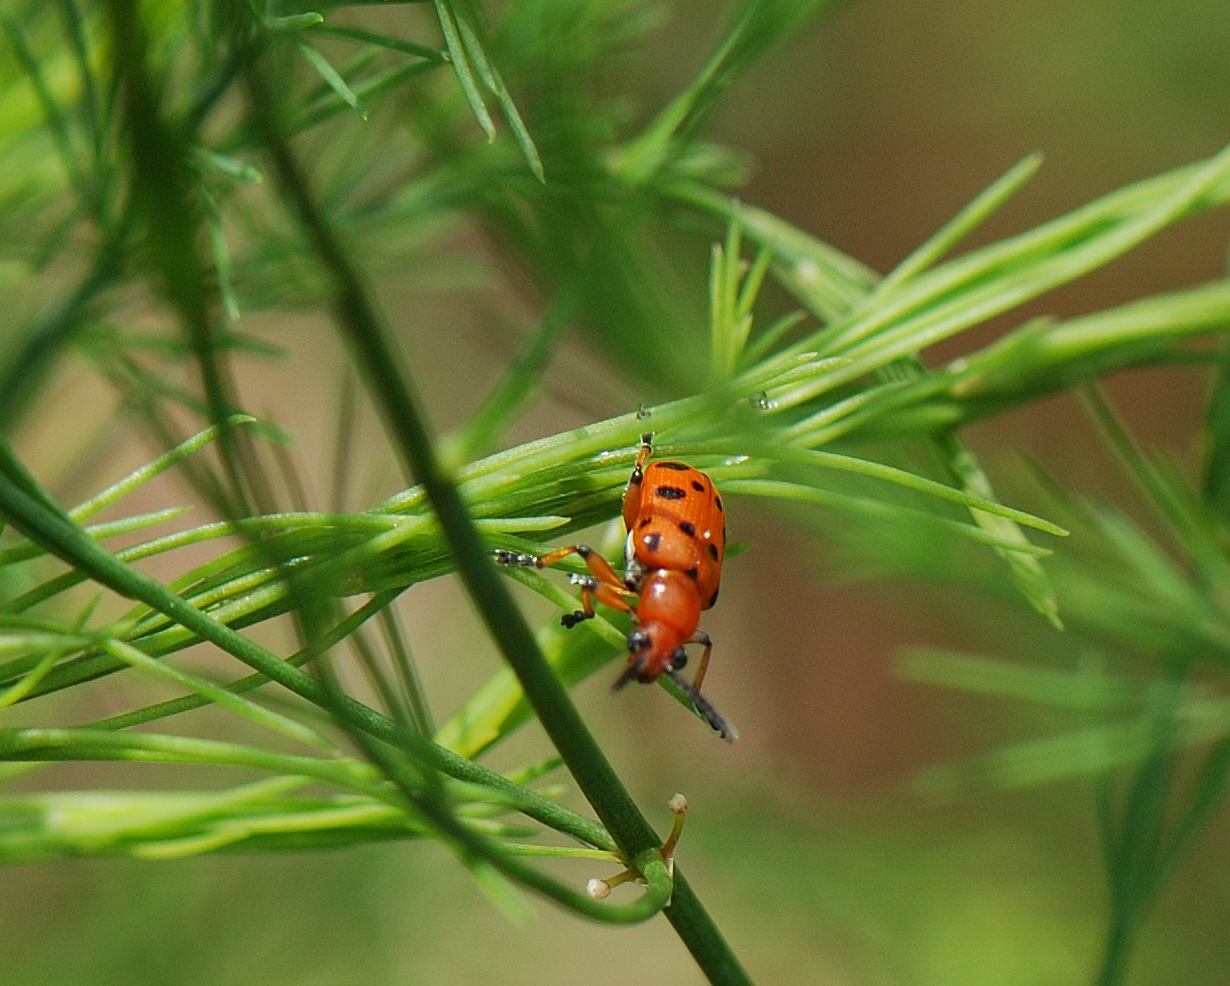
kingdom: Animalia
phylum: Arthropoda
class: Insecta
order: Coleoptera
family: Chrysomelidae
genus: Crioceris
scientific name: Crioceris duodecimpunctata
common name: Twelve-spotted asparagus beetle
